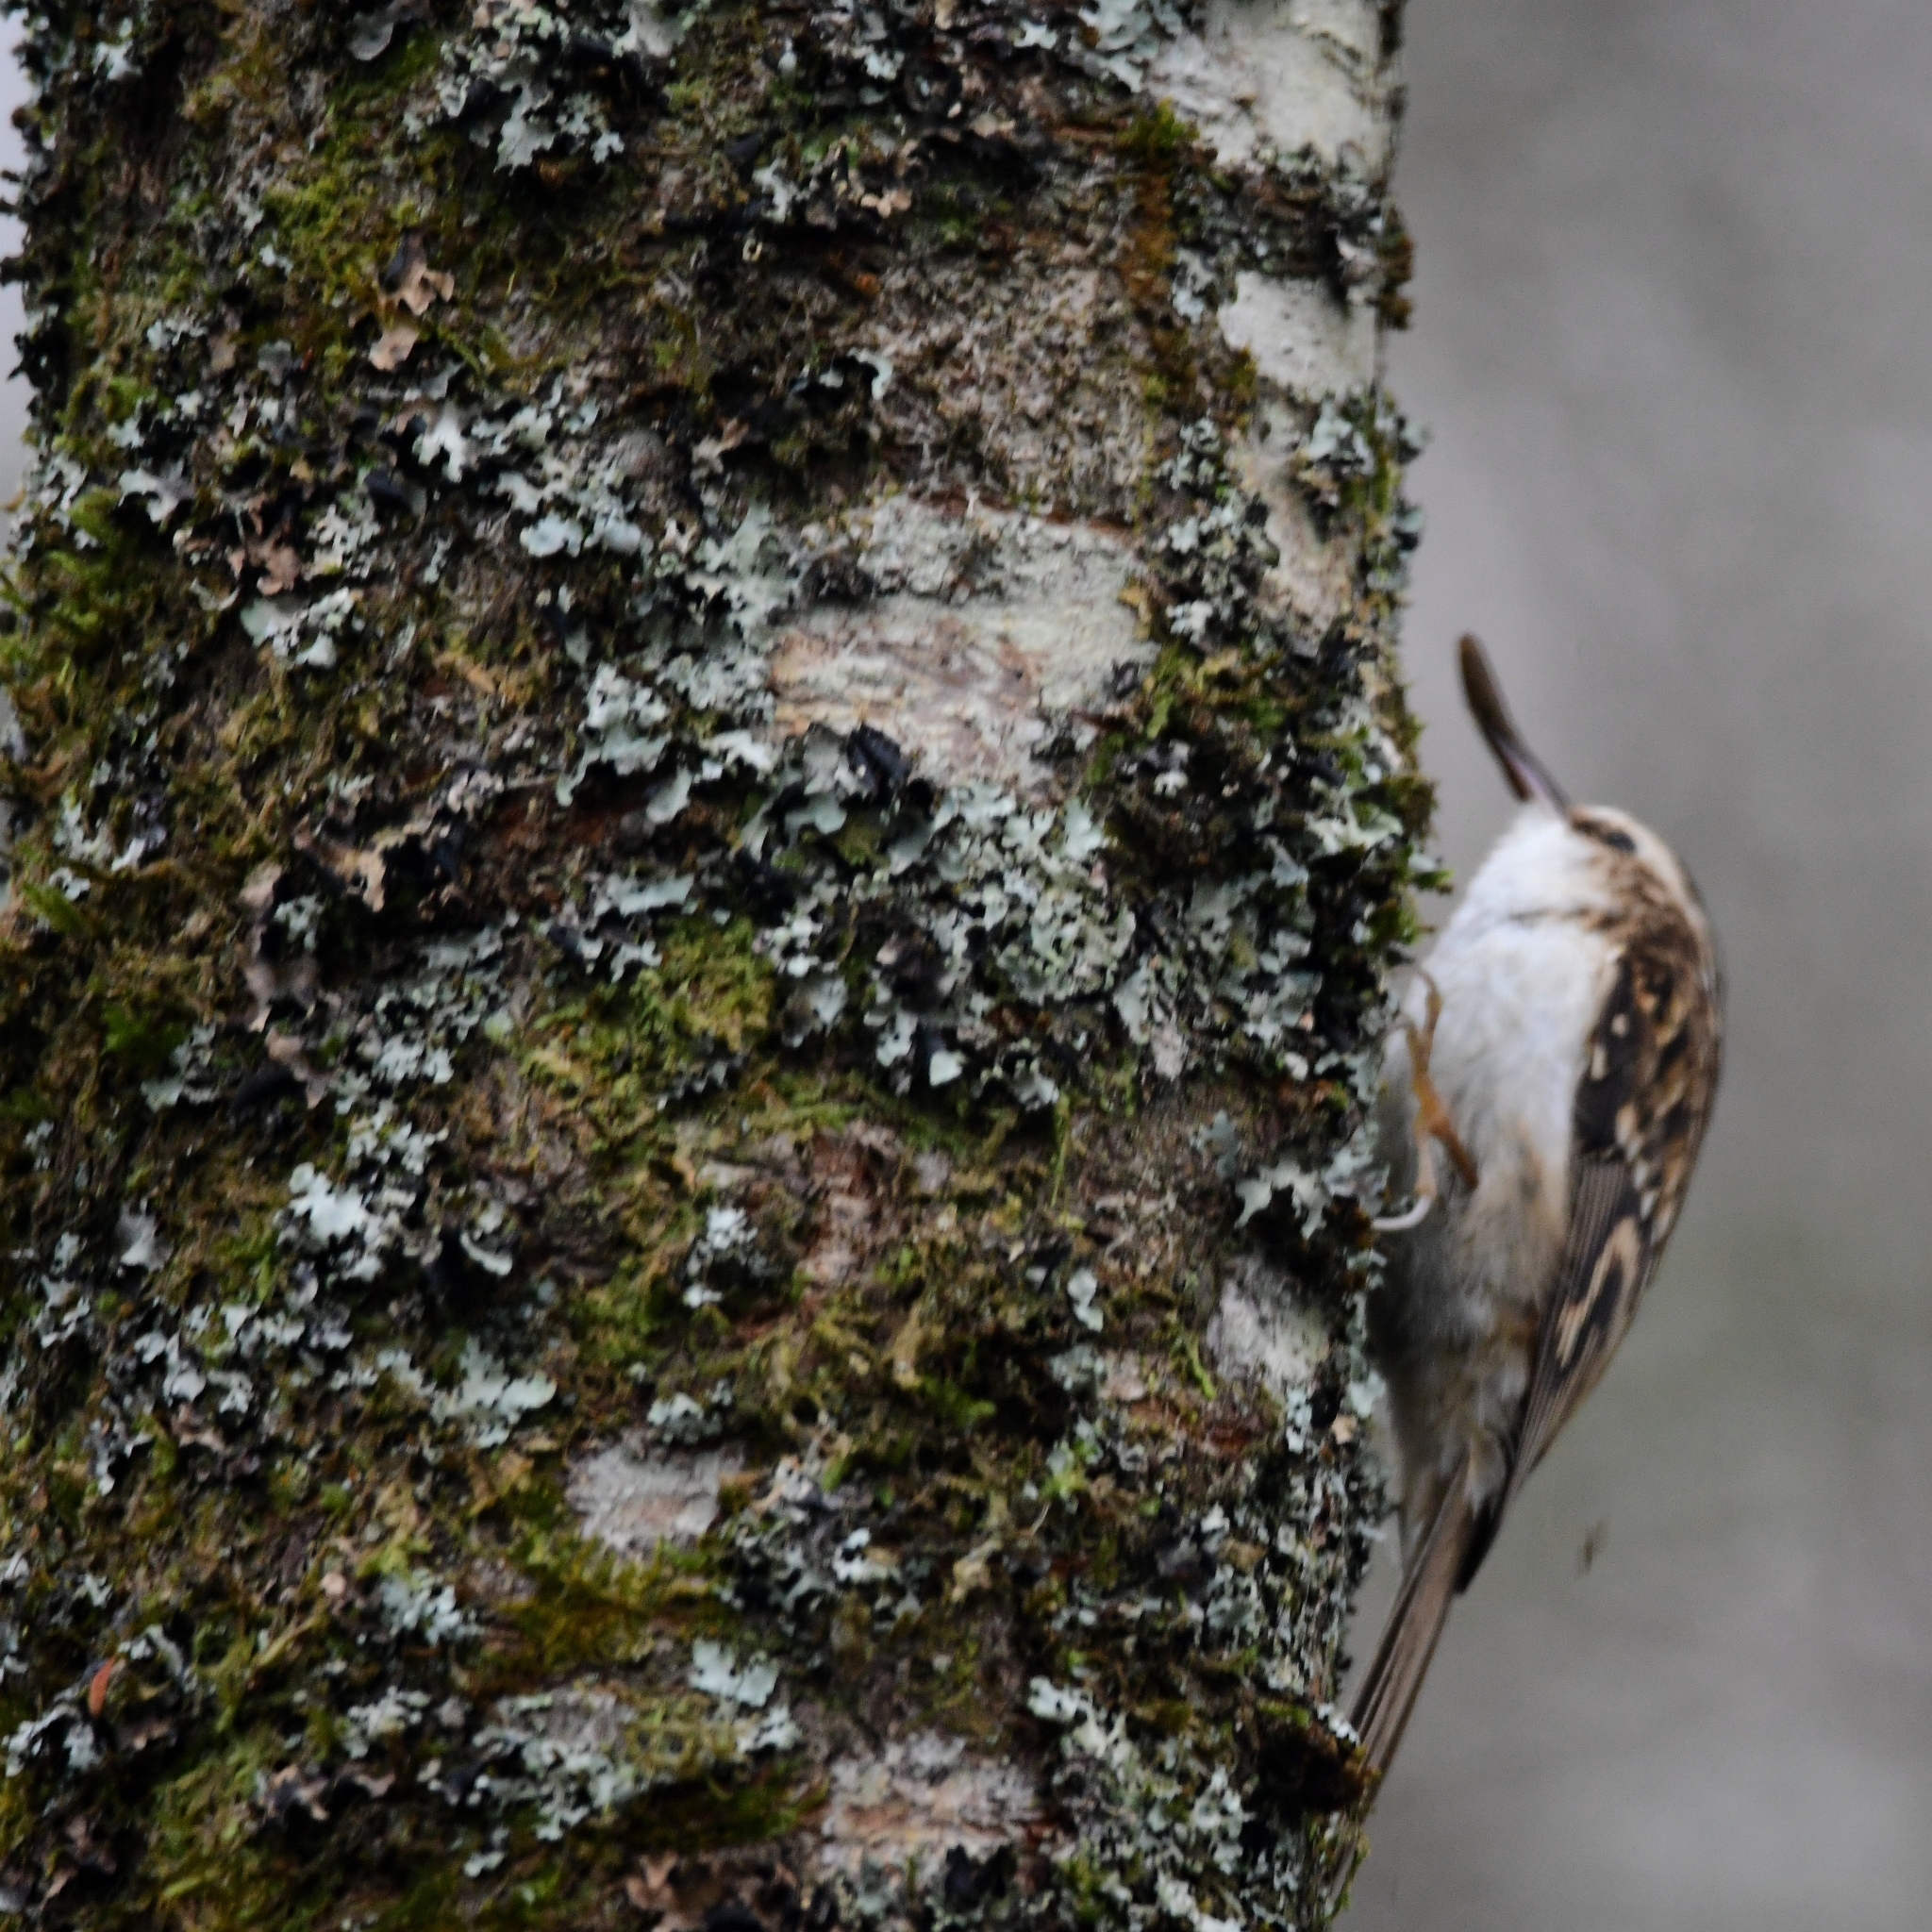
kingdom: Animalia
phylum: Chordata
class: Aves
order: Passeriformes
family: Certhiidae
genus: Certhia
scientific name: Certhia familiaris
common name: Eurasian treecreeper
